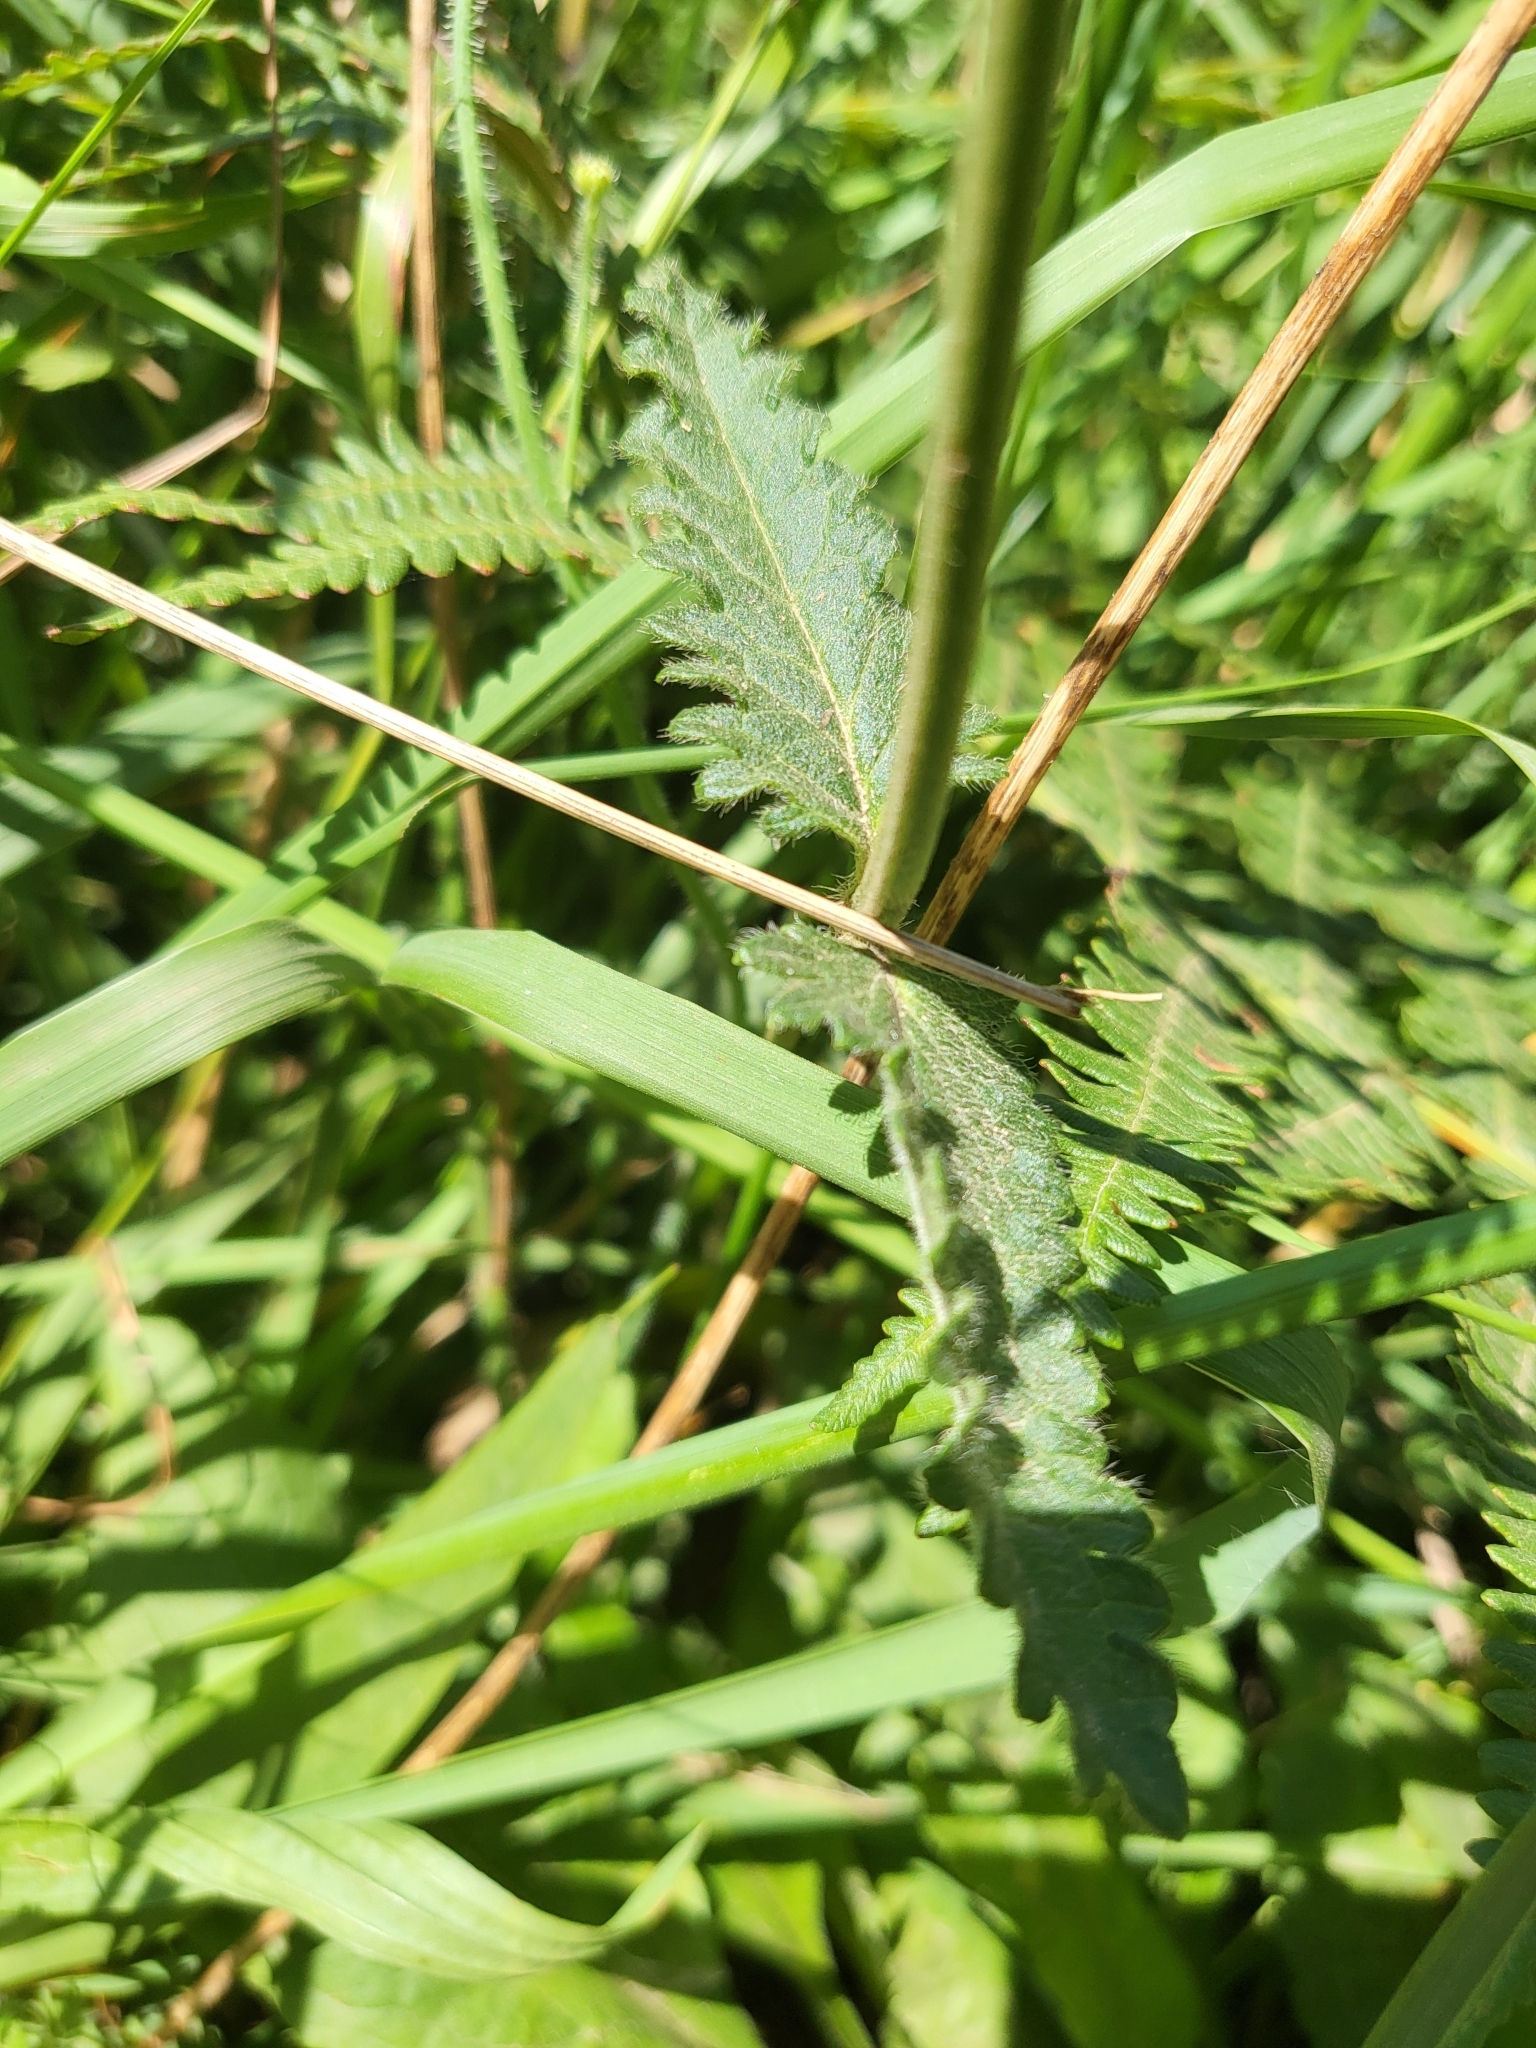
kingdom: Plantae
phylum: Tracheophyta
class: Magnoliopsida
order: Lamiales
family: Lamiaceae
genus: Betonica
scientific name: Betonica officinalis
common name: Bishop's-wort
